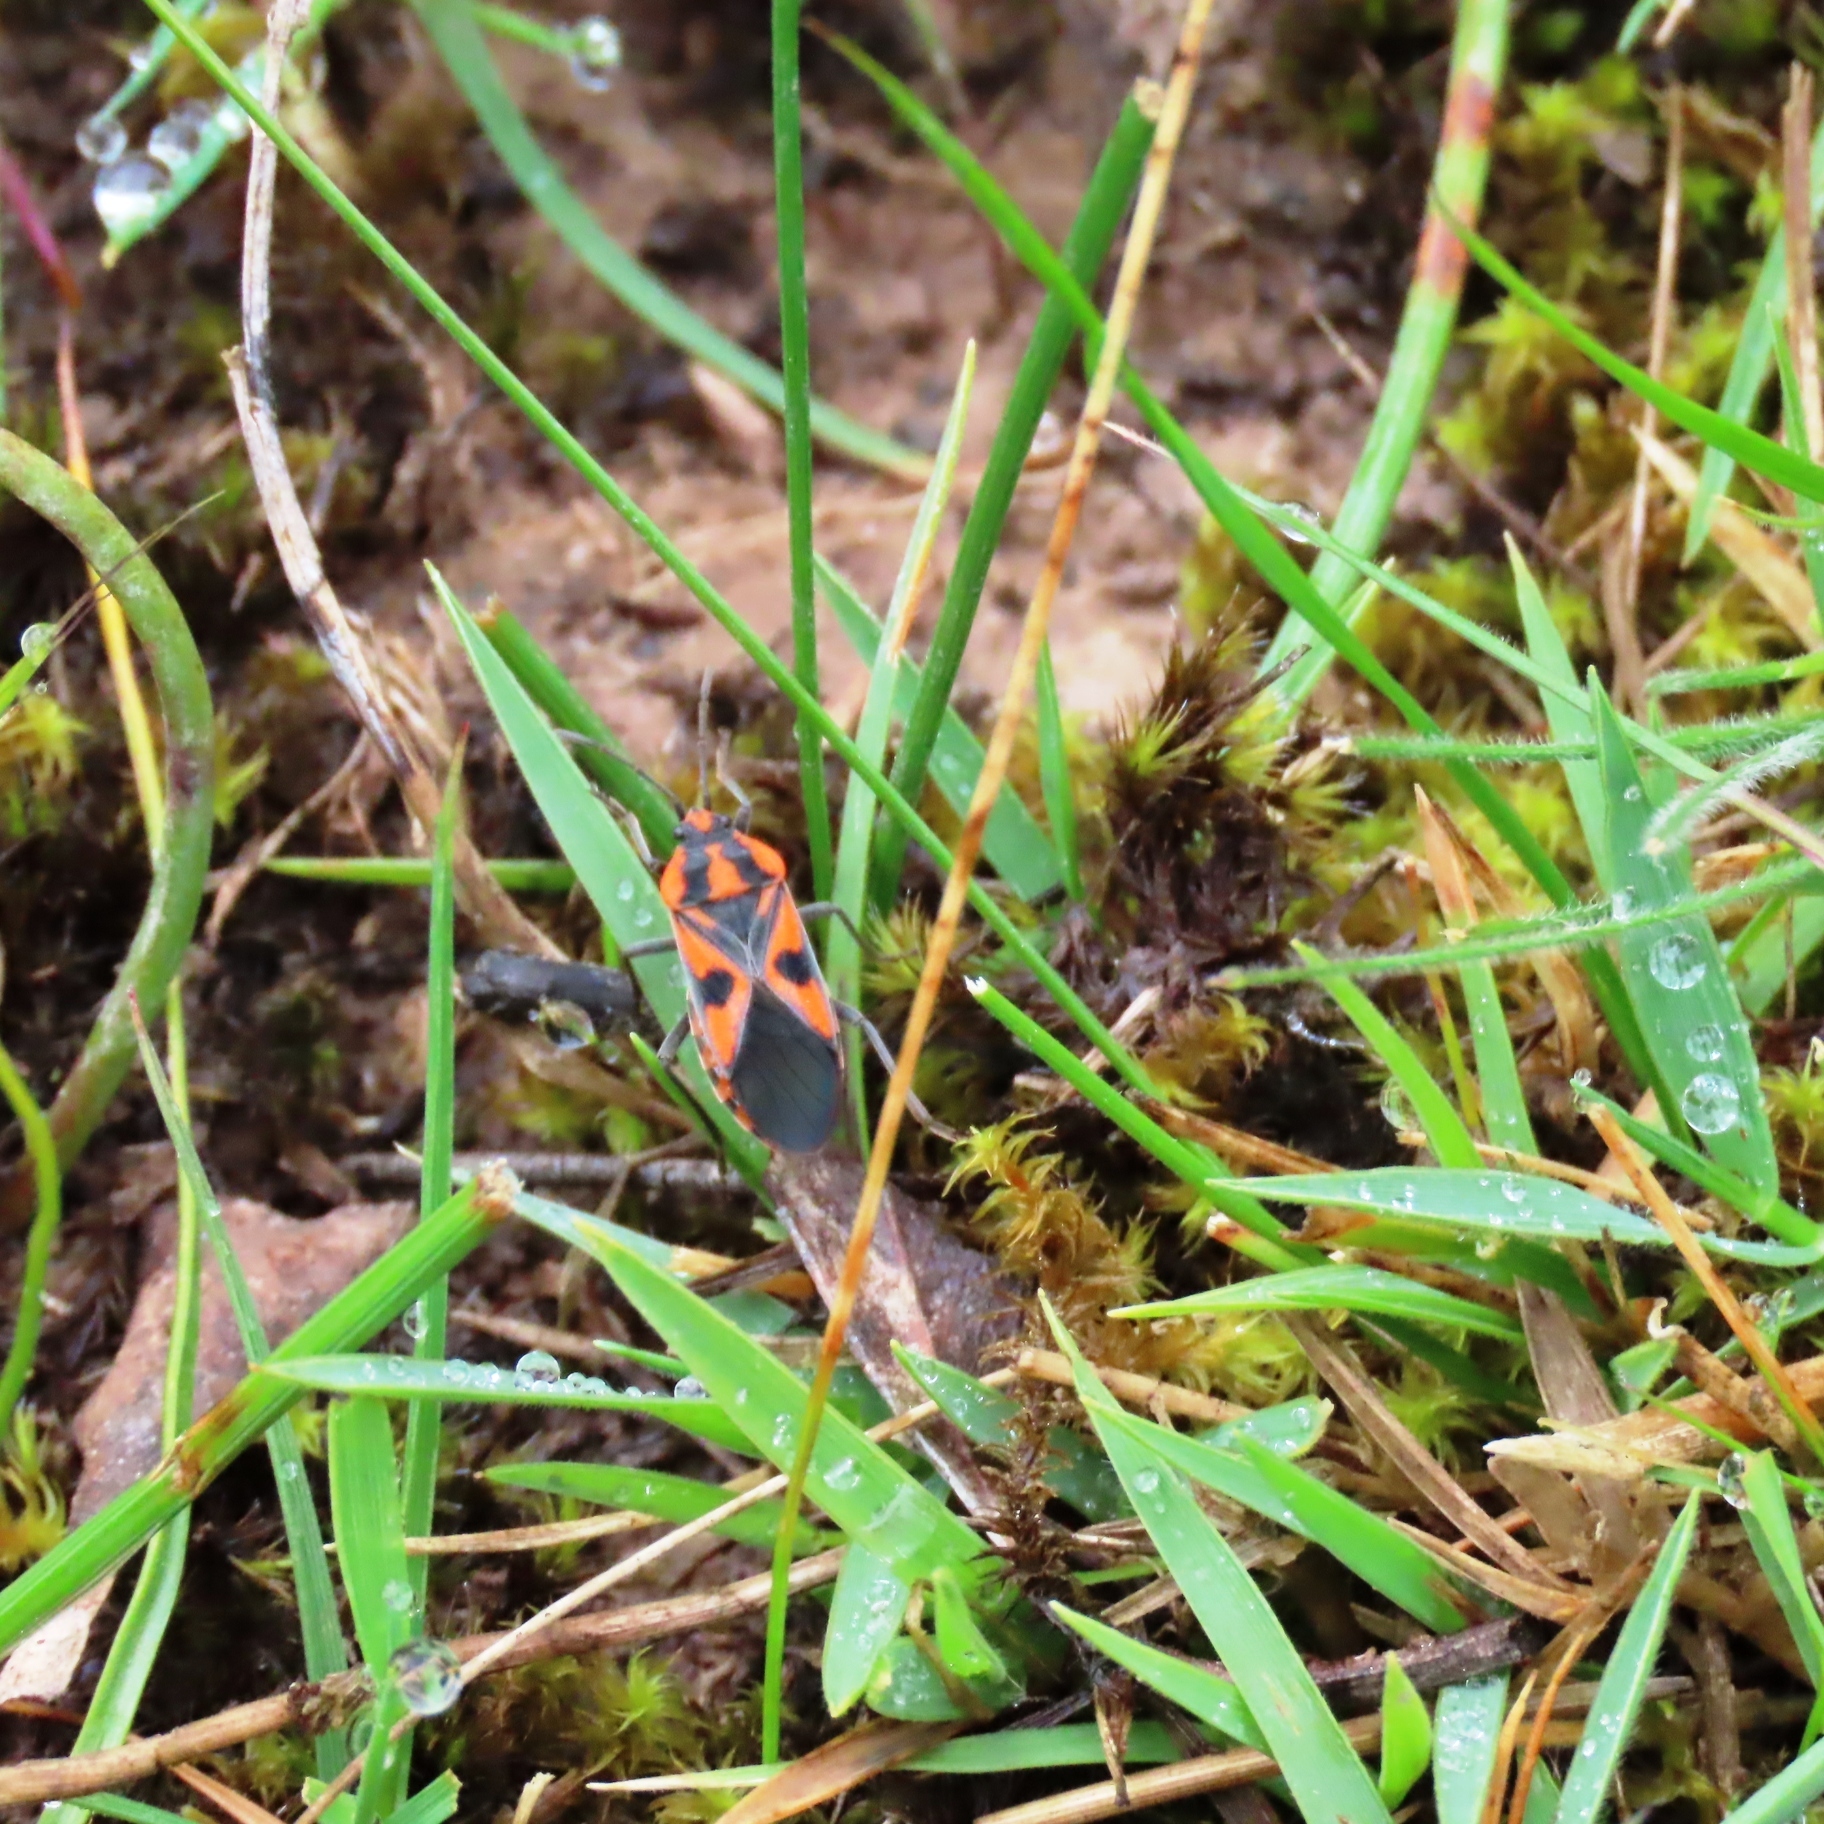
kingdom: Animalia
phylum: Arthropoda
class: Insecta
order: Hemiptera
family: Lygaeidae
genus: Spilostethus
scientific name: Spilostethus pacificus
